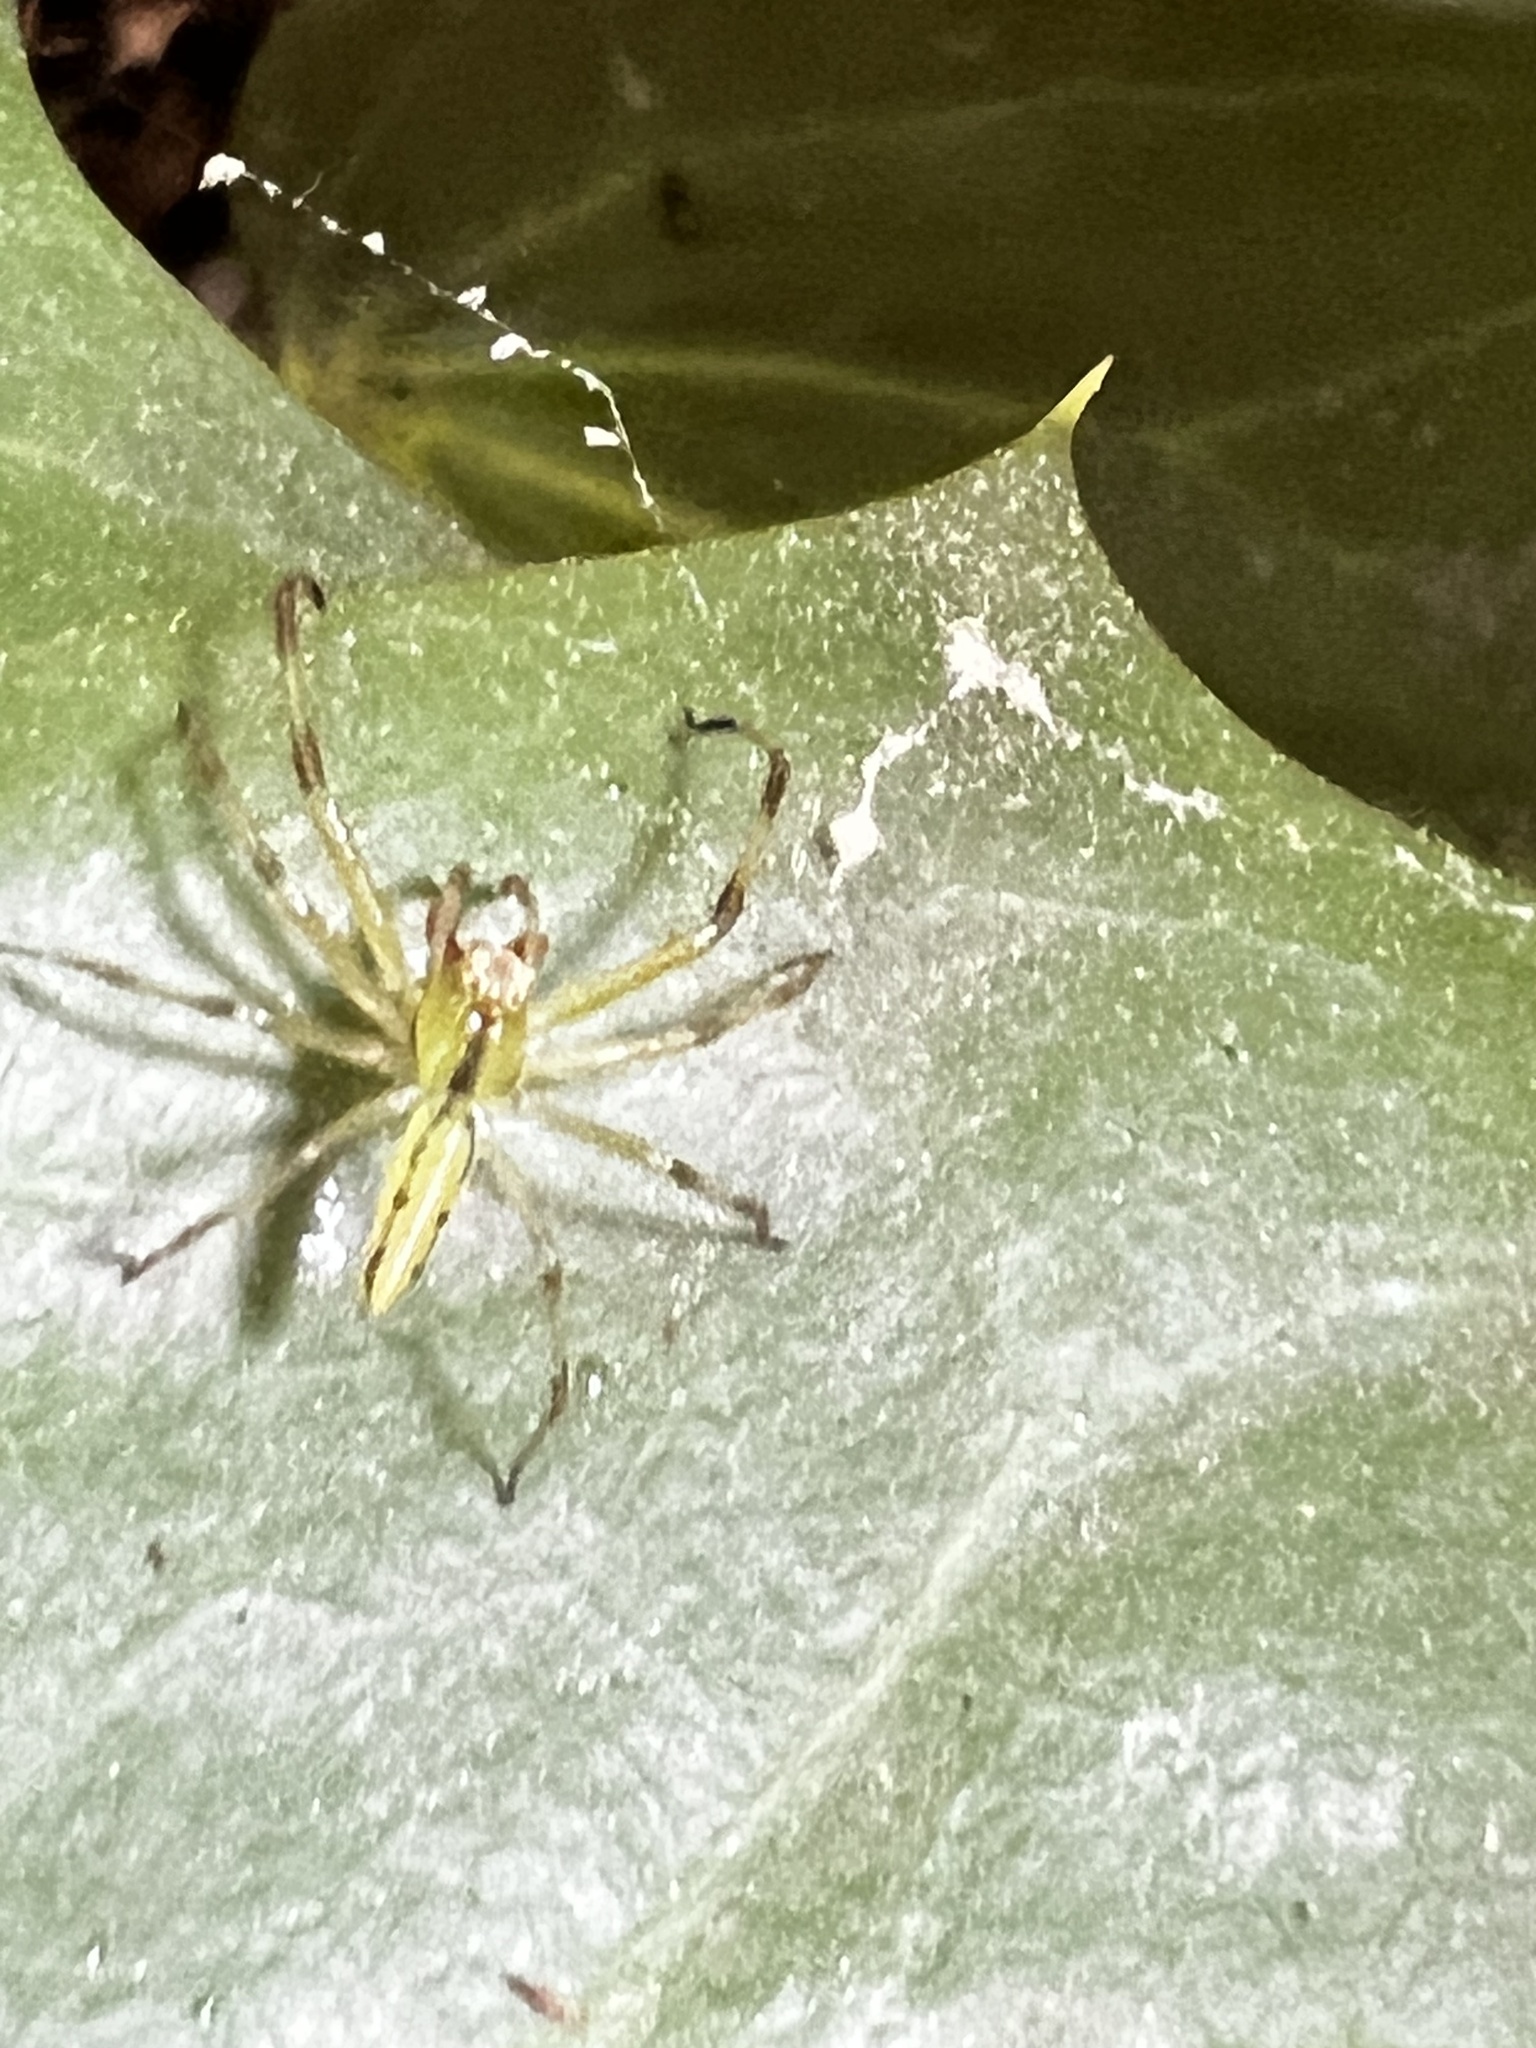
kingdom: Animalia
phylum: Arthropoda
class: Arachnida
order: Araneae
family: Salticidae
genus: Lyssomanes
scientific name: Lyssomanes viridis
